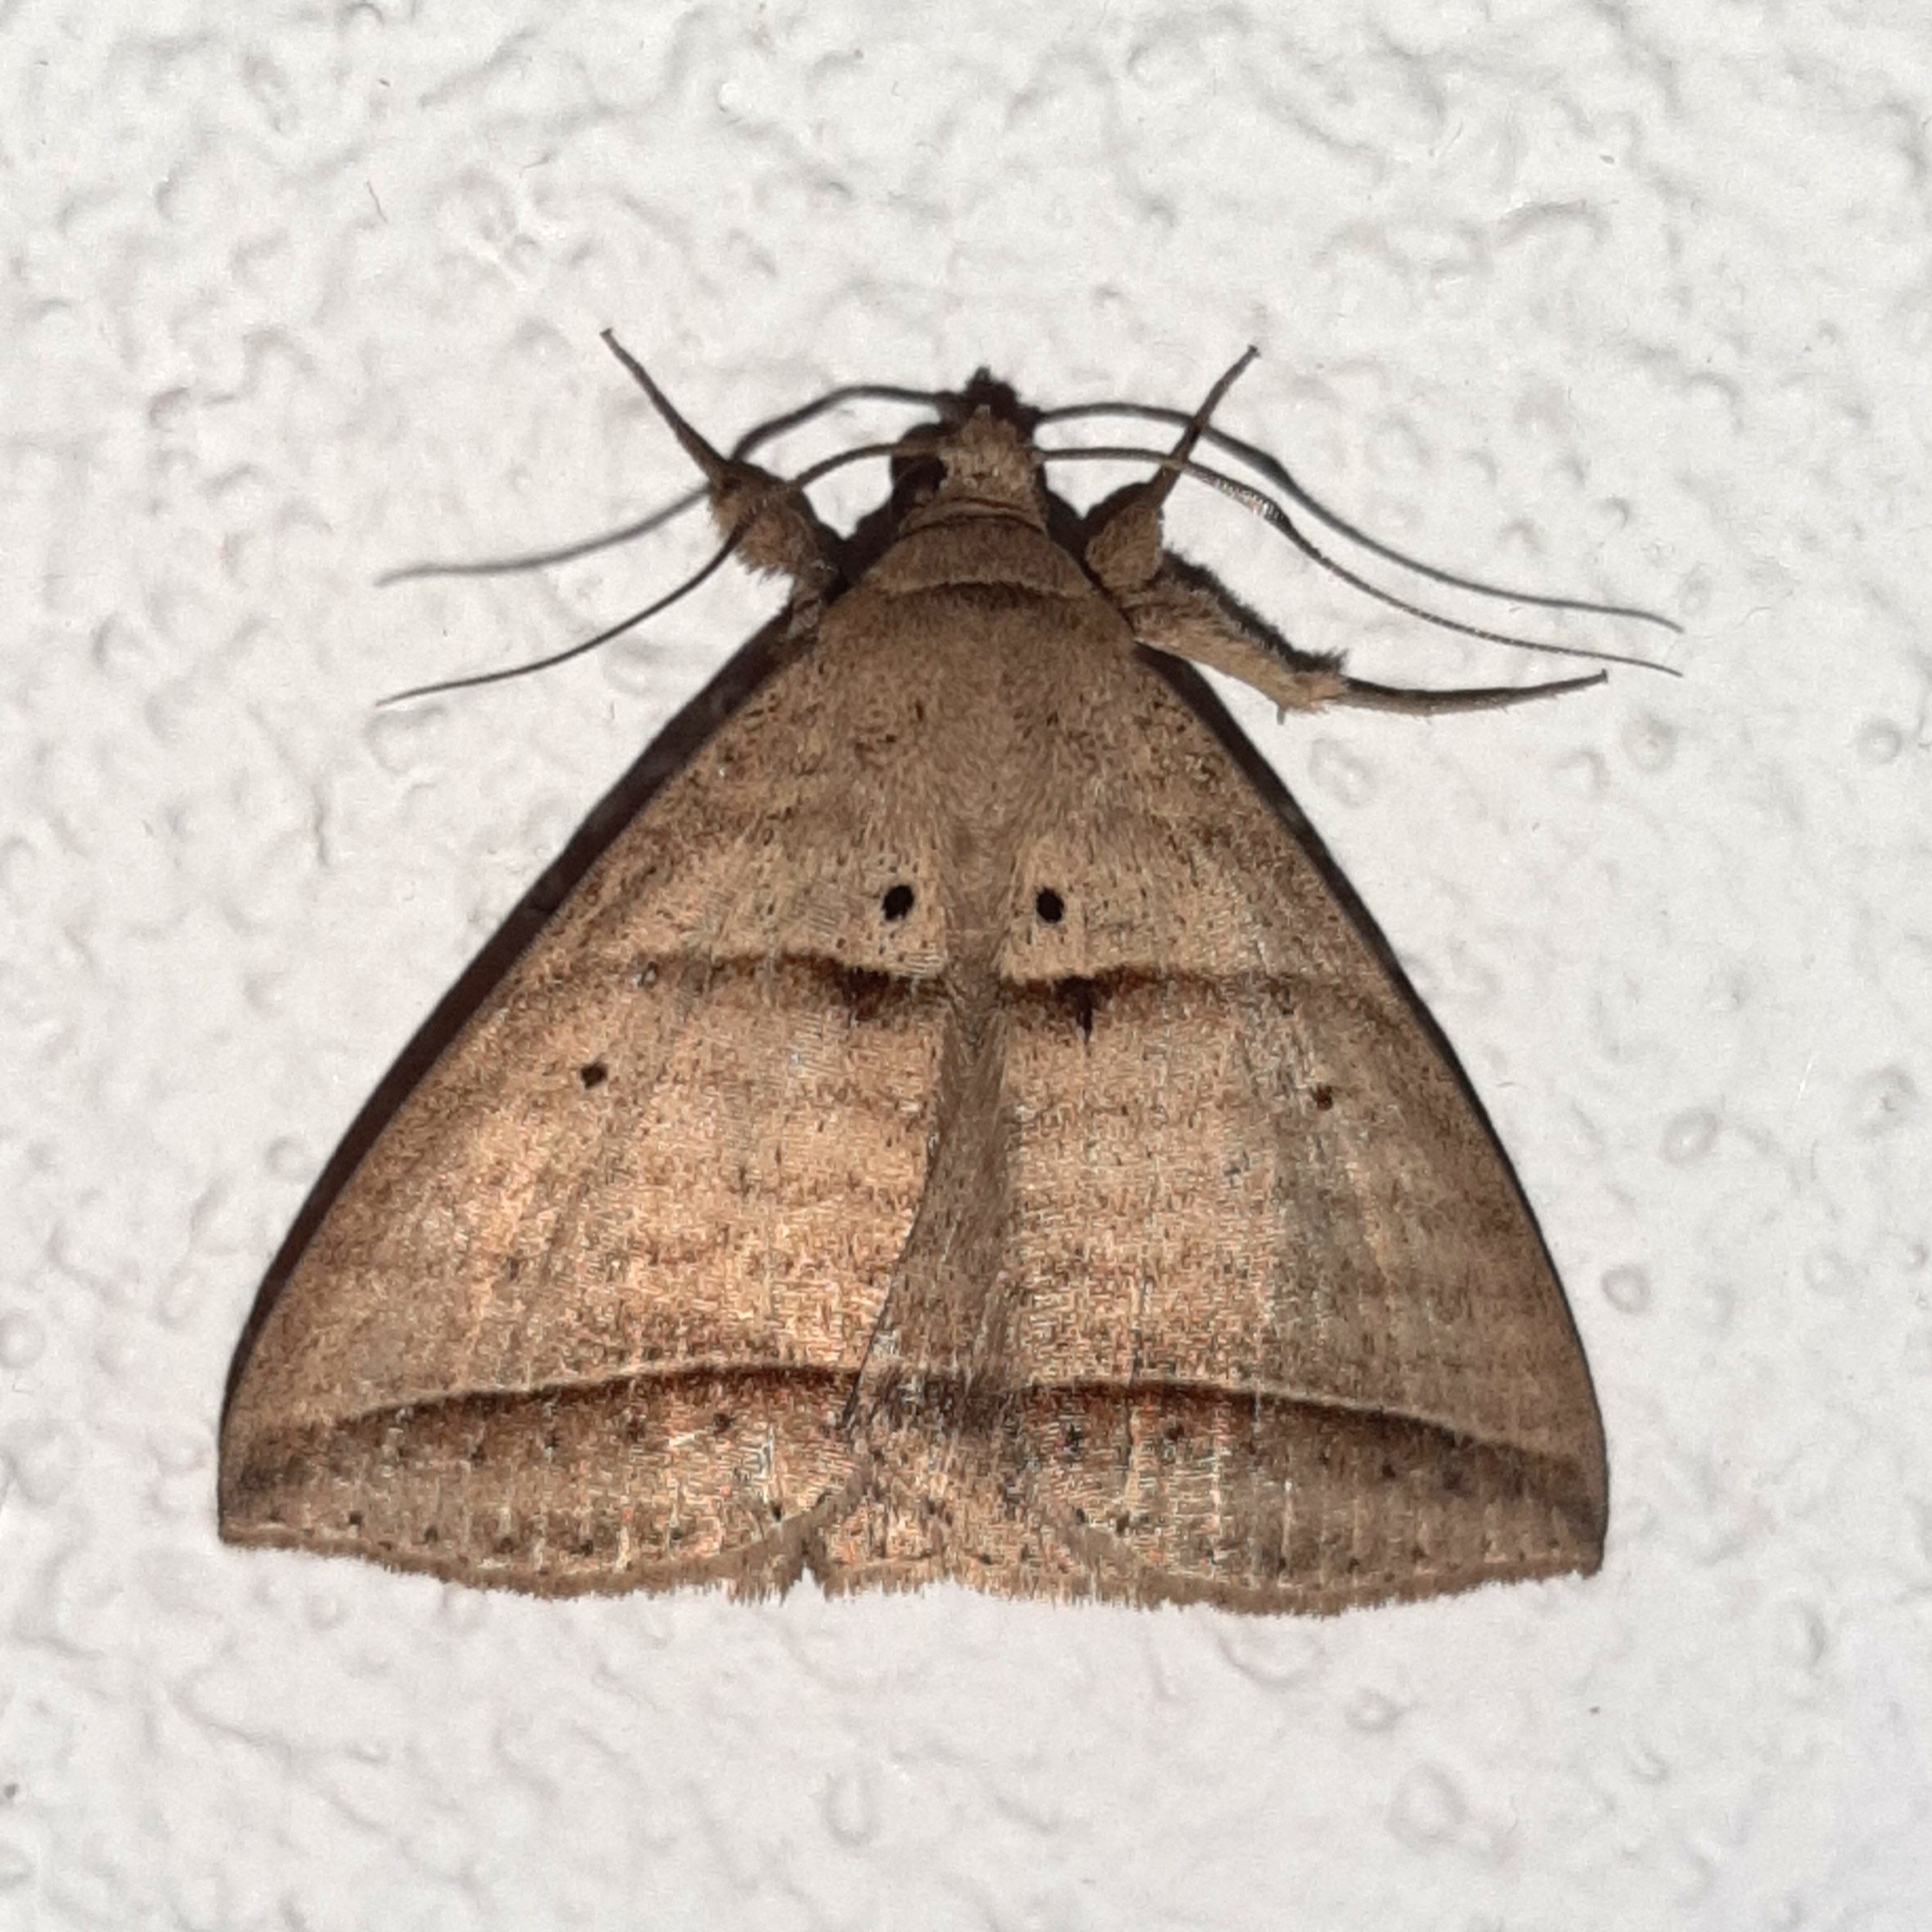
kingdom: Animalia
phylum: Arthropoda
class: Insecta
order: Lepidoptera
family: Erebidae
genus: Perasia
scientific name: Perasia helvina
